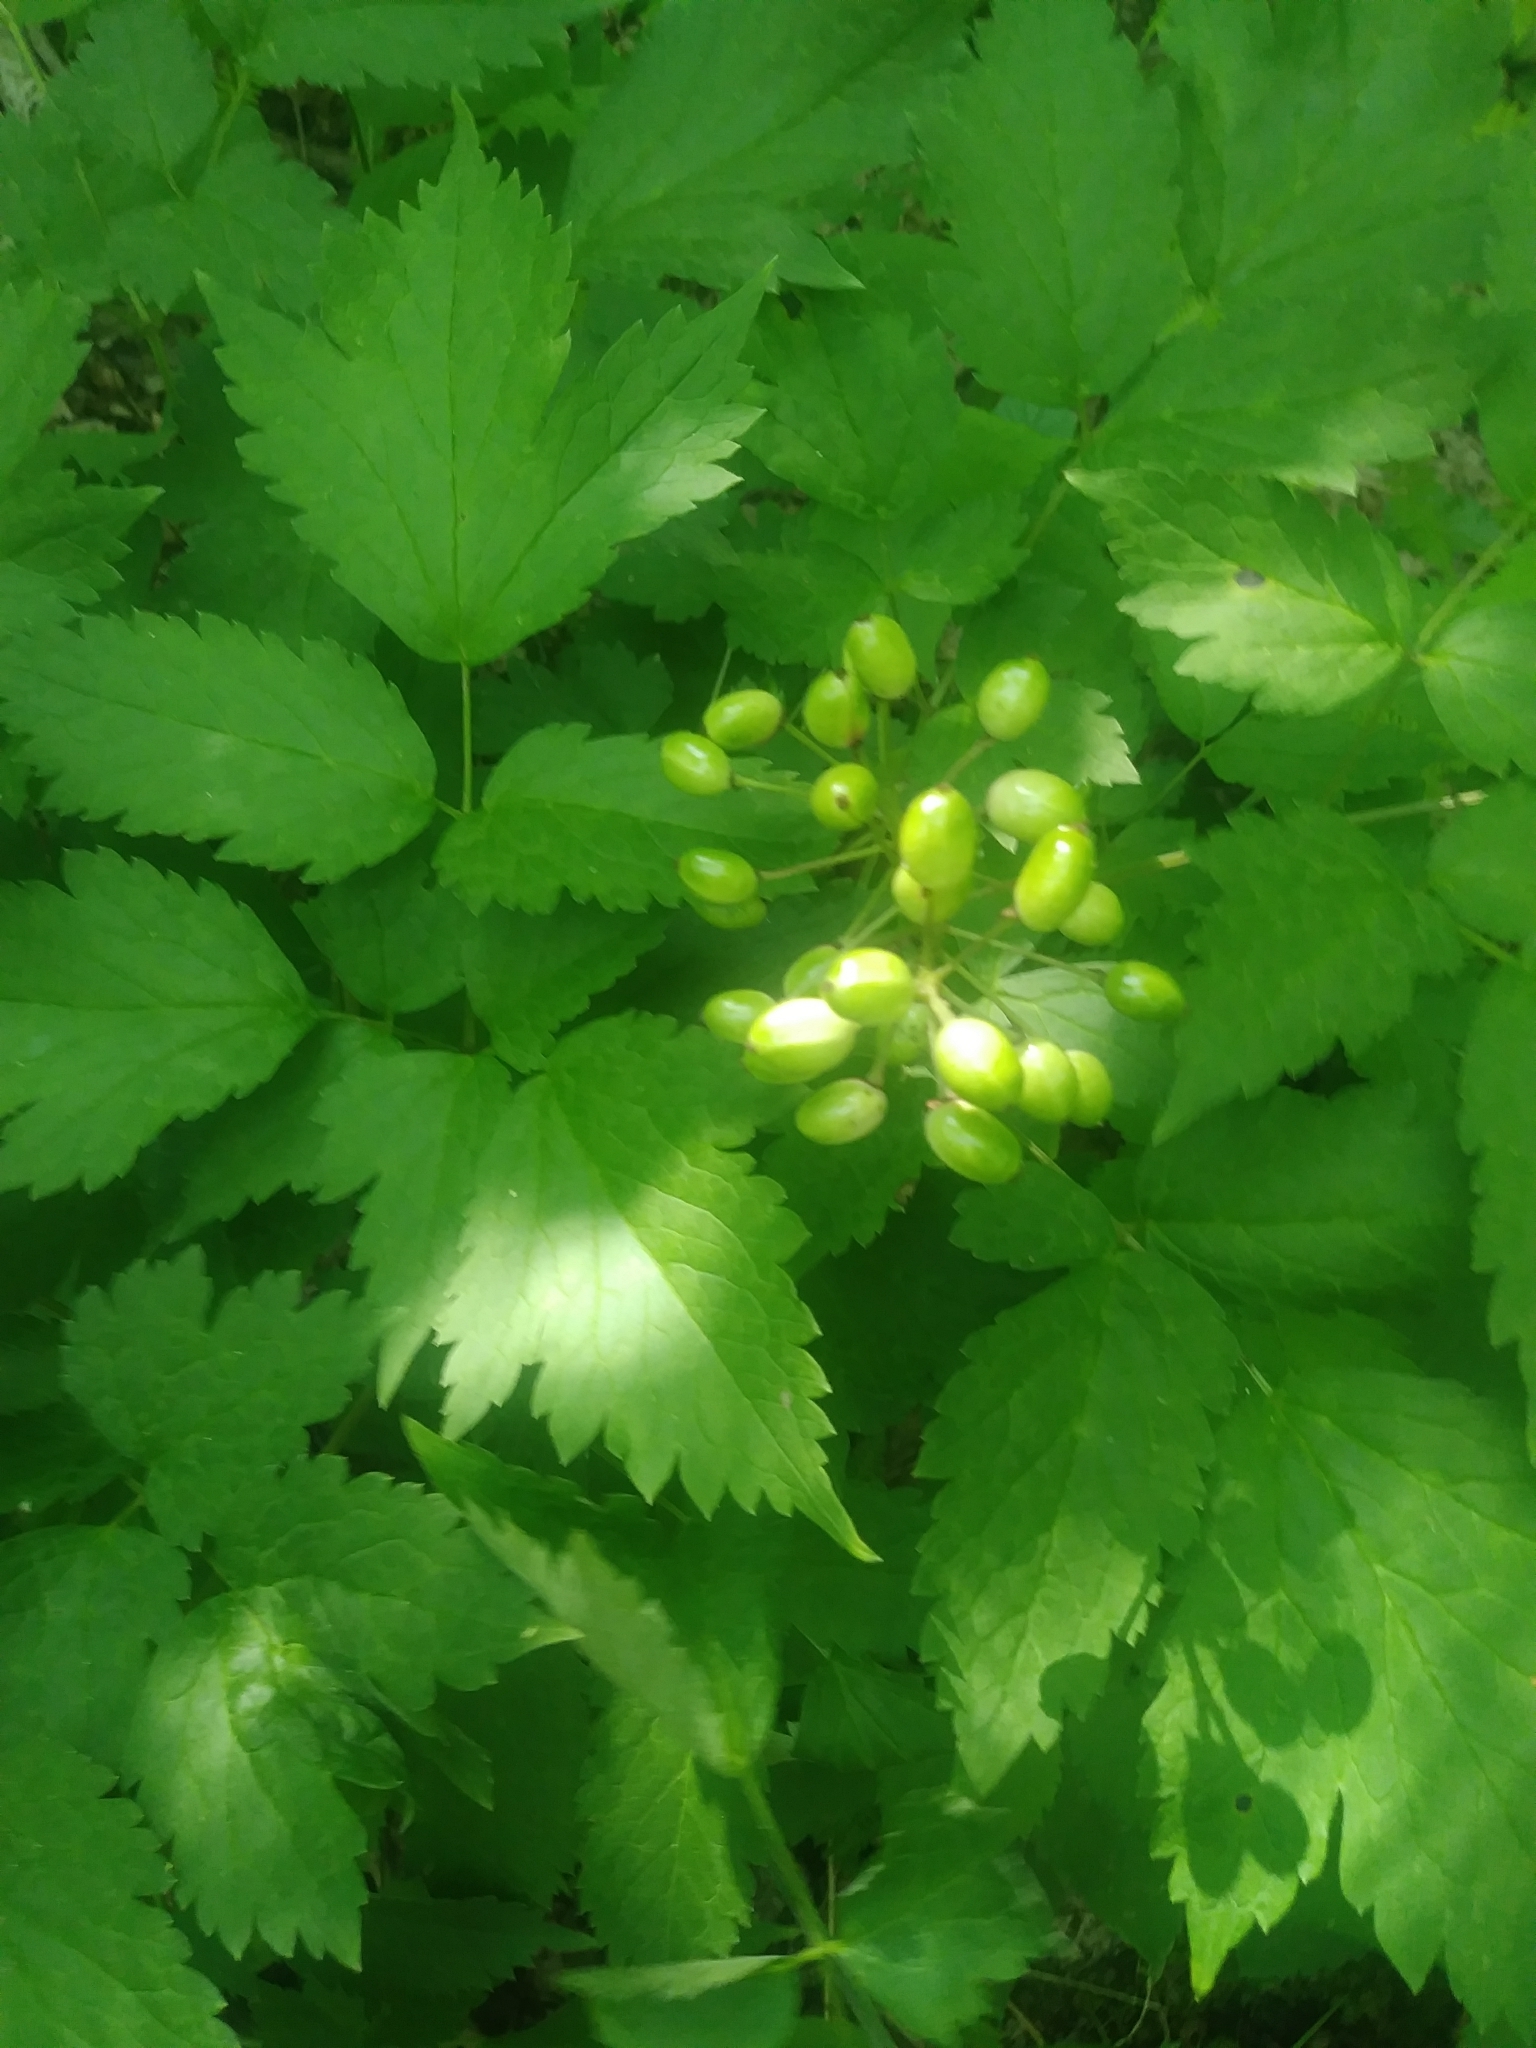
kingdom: Plantae
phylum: Tracheophyta
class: Magnoliopsida
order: Ranunculales
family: Ranunculaceae
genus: Actaea
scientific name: Actaea rubra
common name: Red baneberry
